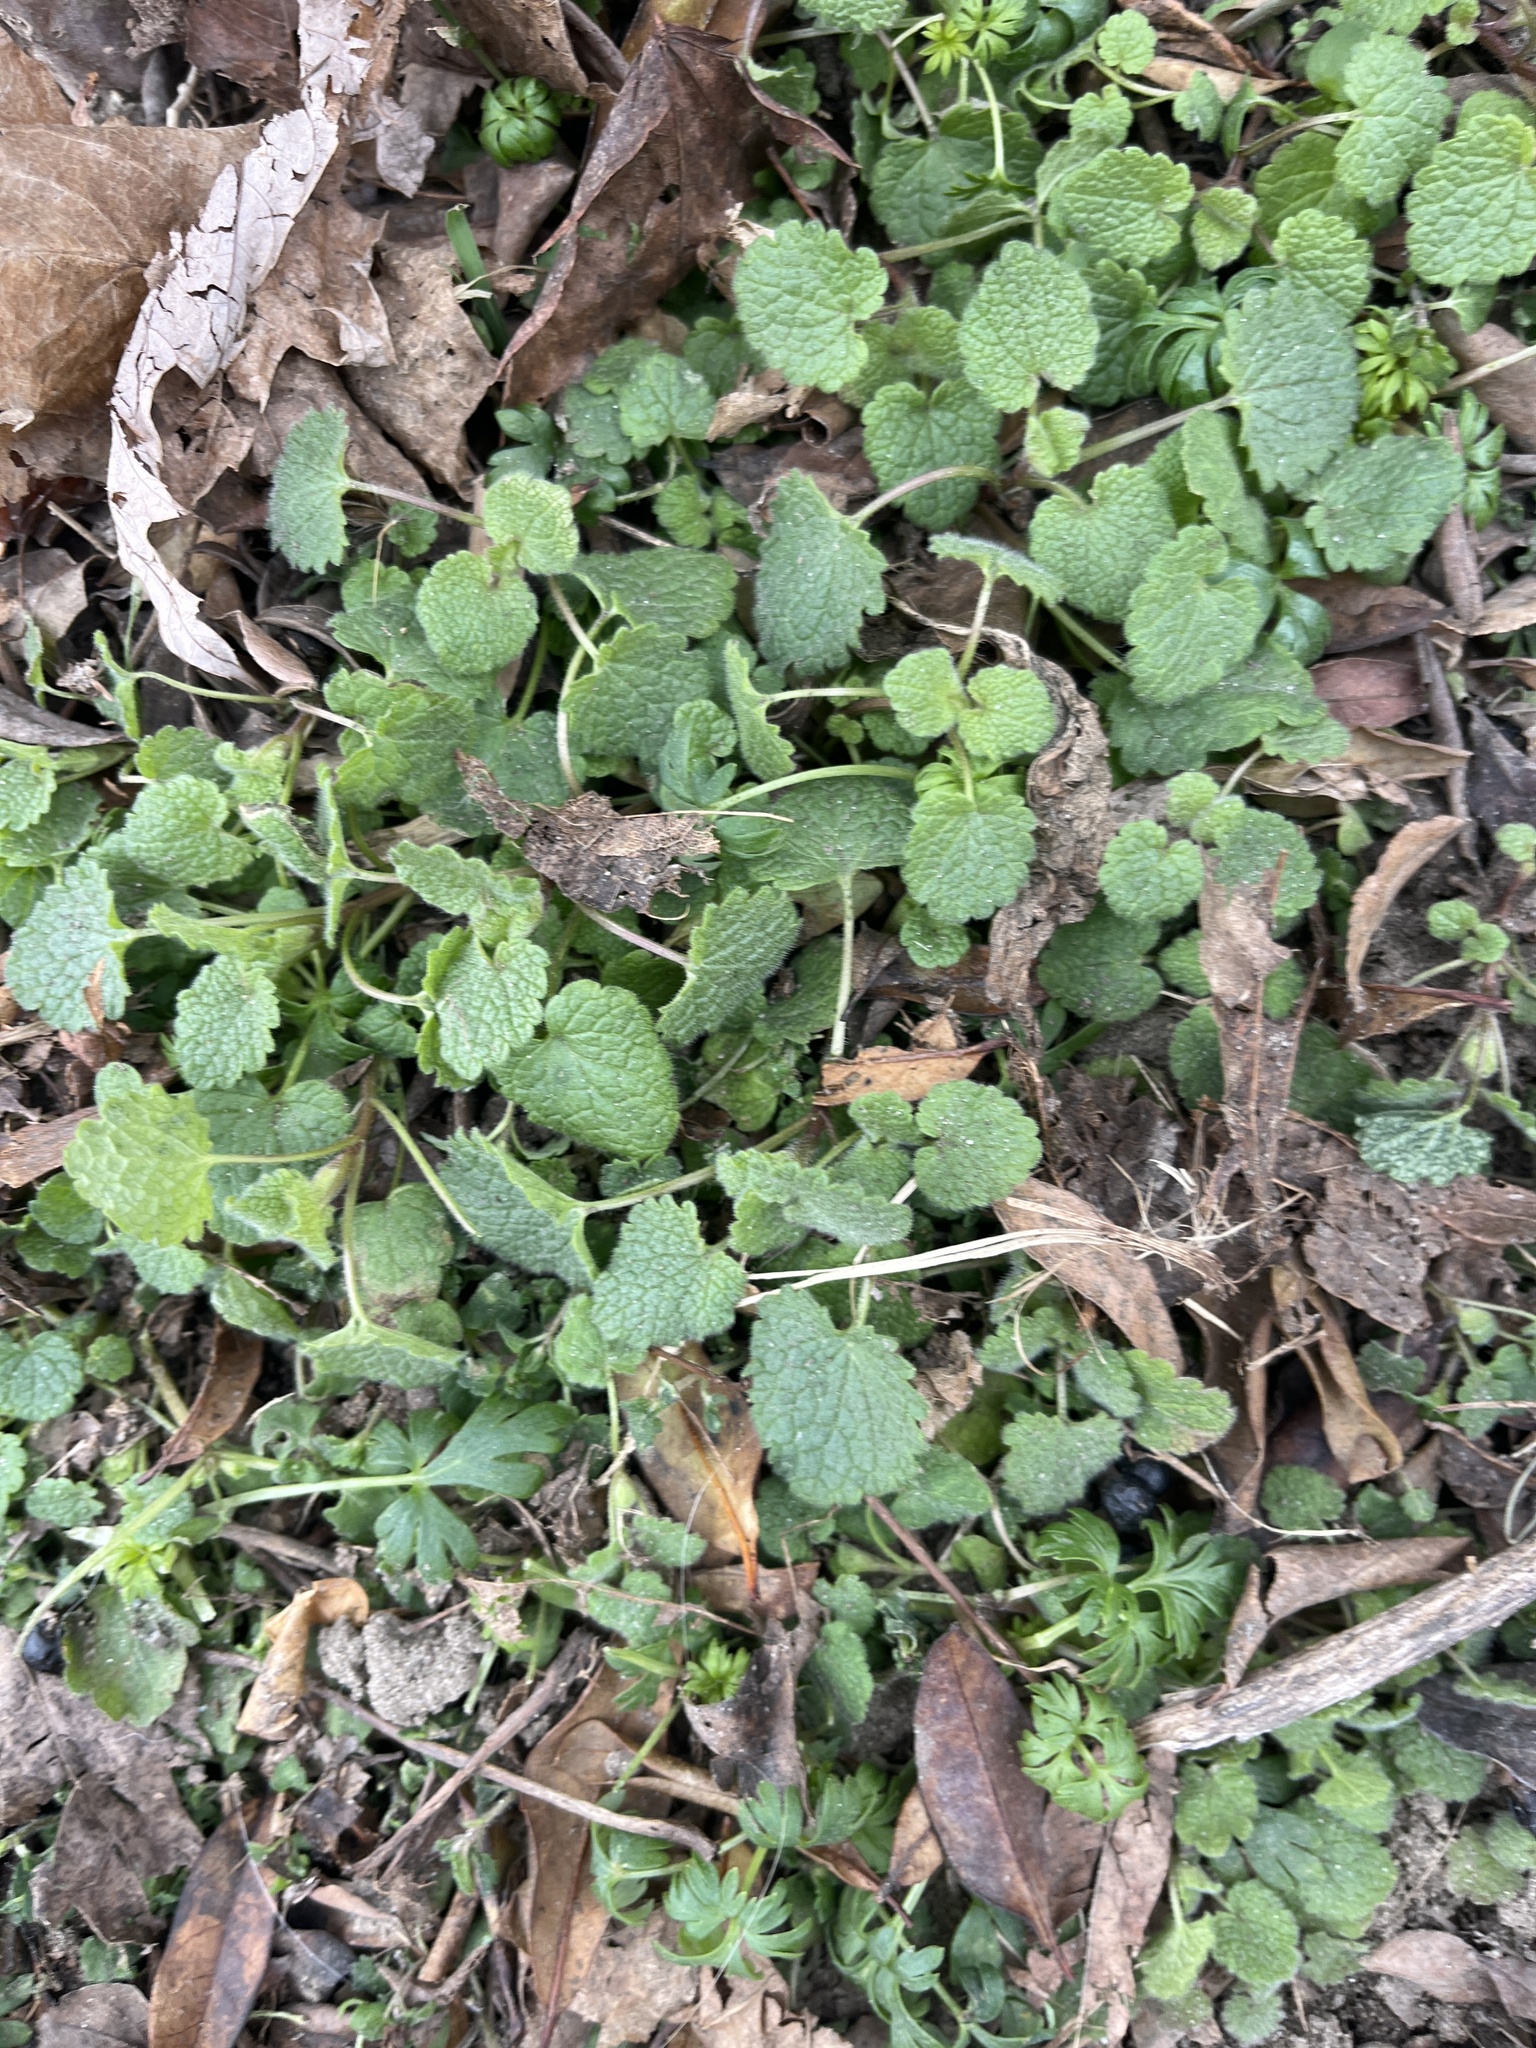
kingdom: Plantae
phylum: Tracheophyta
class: Magnoliopsida
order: Lamiales
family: Lamiaceae
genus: Lamium
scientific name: Lamium purpureum
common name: Red dead-nettle
